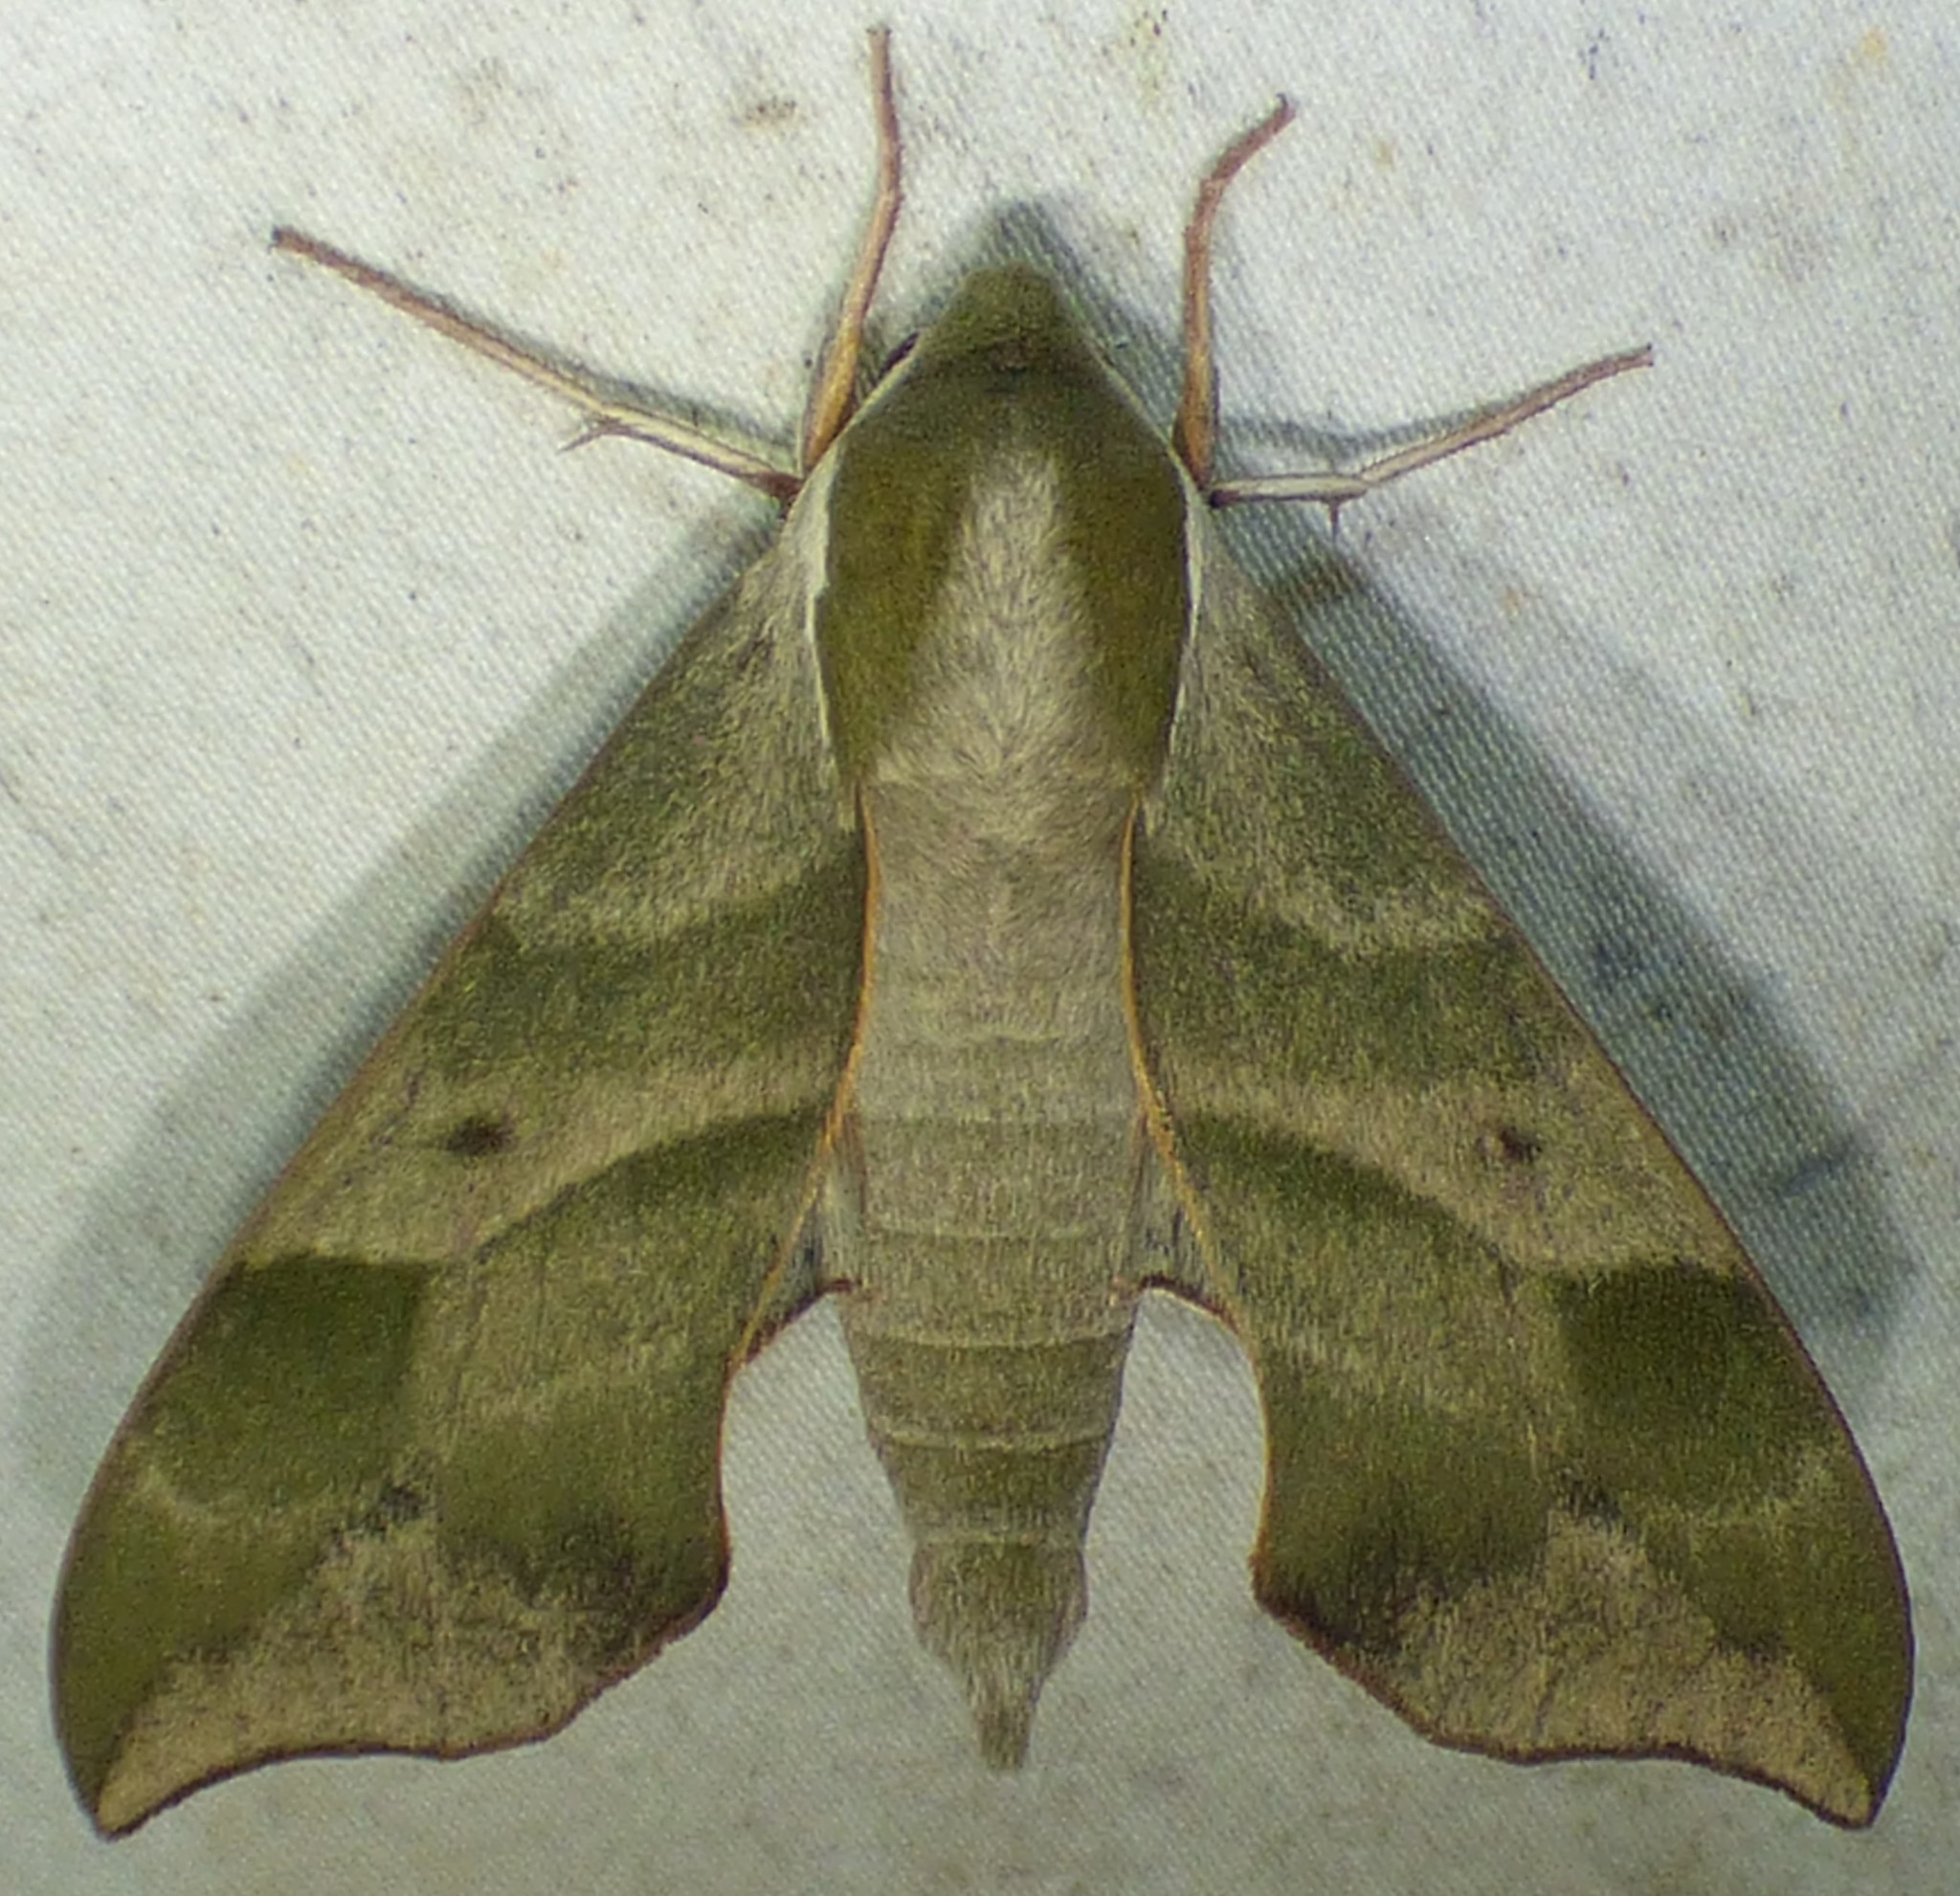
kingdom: Animalia
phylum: Arthropoda
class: Insecta
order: Lepidoptera
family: Sphingidae
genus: Darapsa
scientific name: Darapsa myron
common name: Hog sphinx
